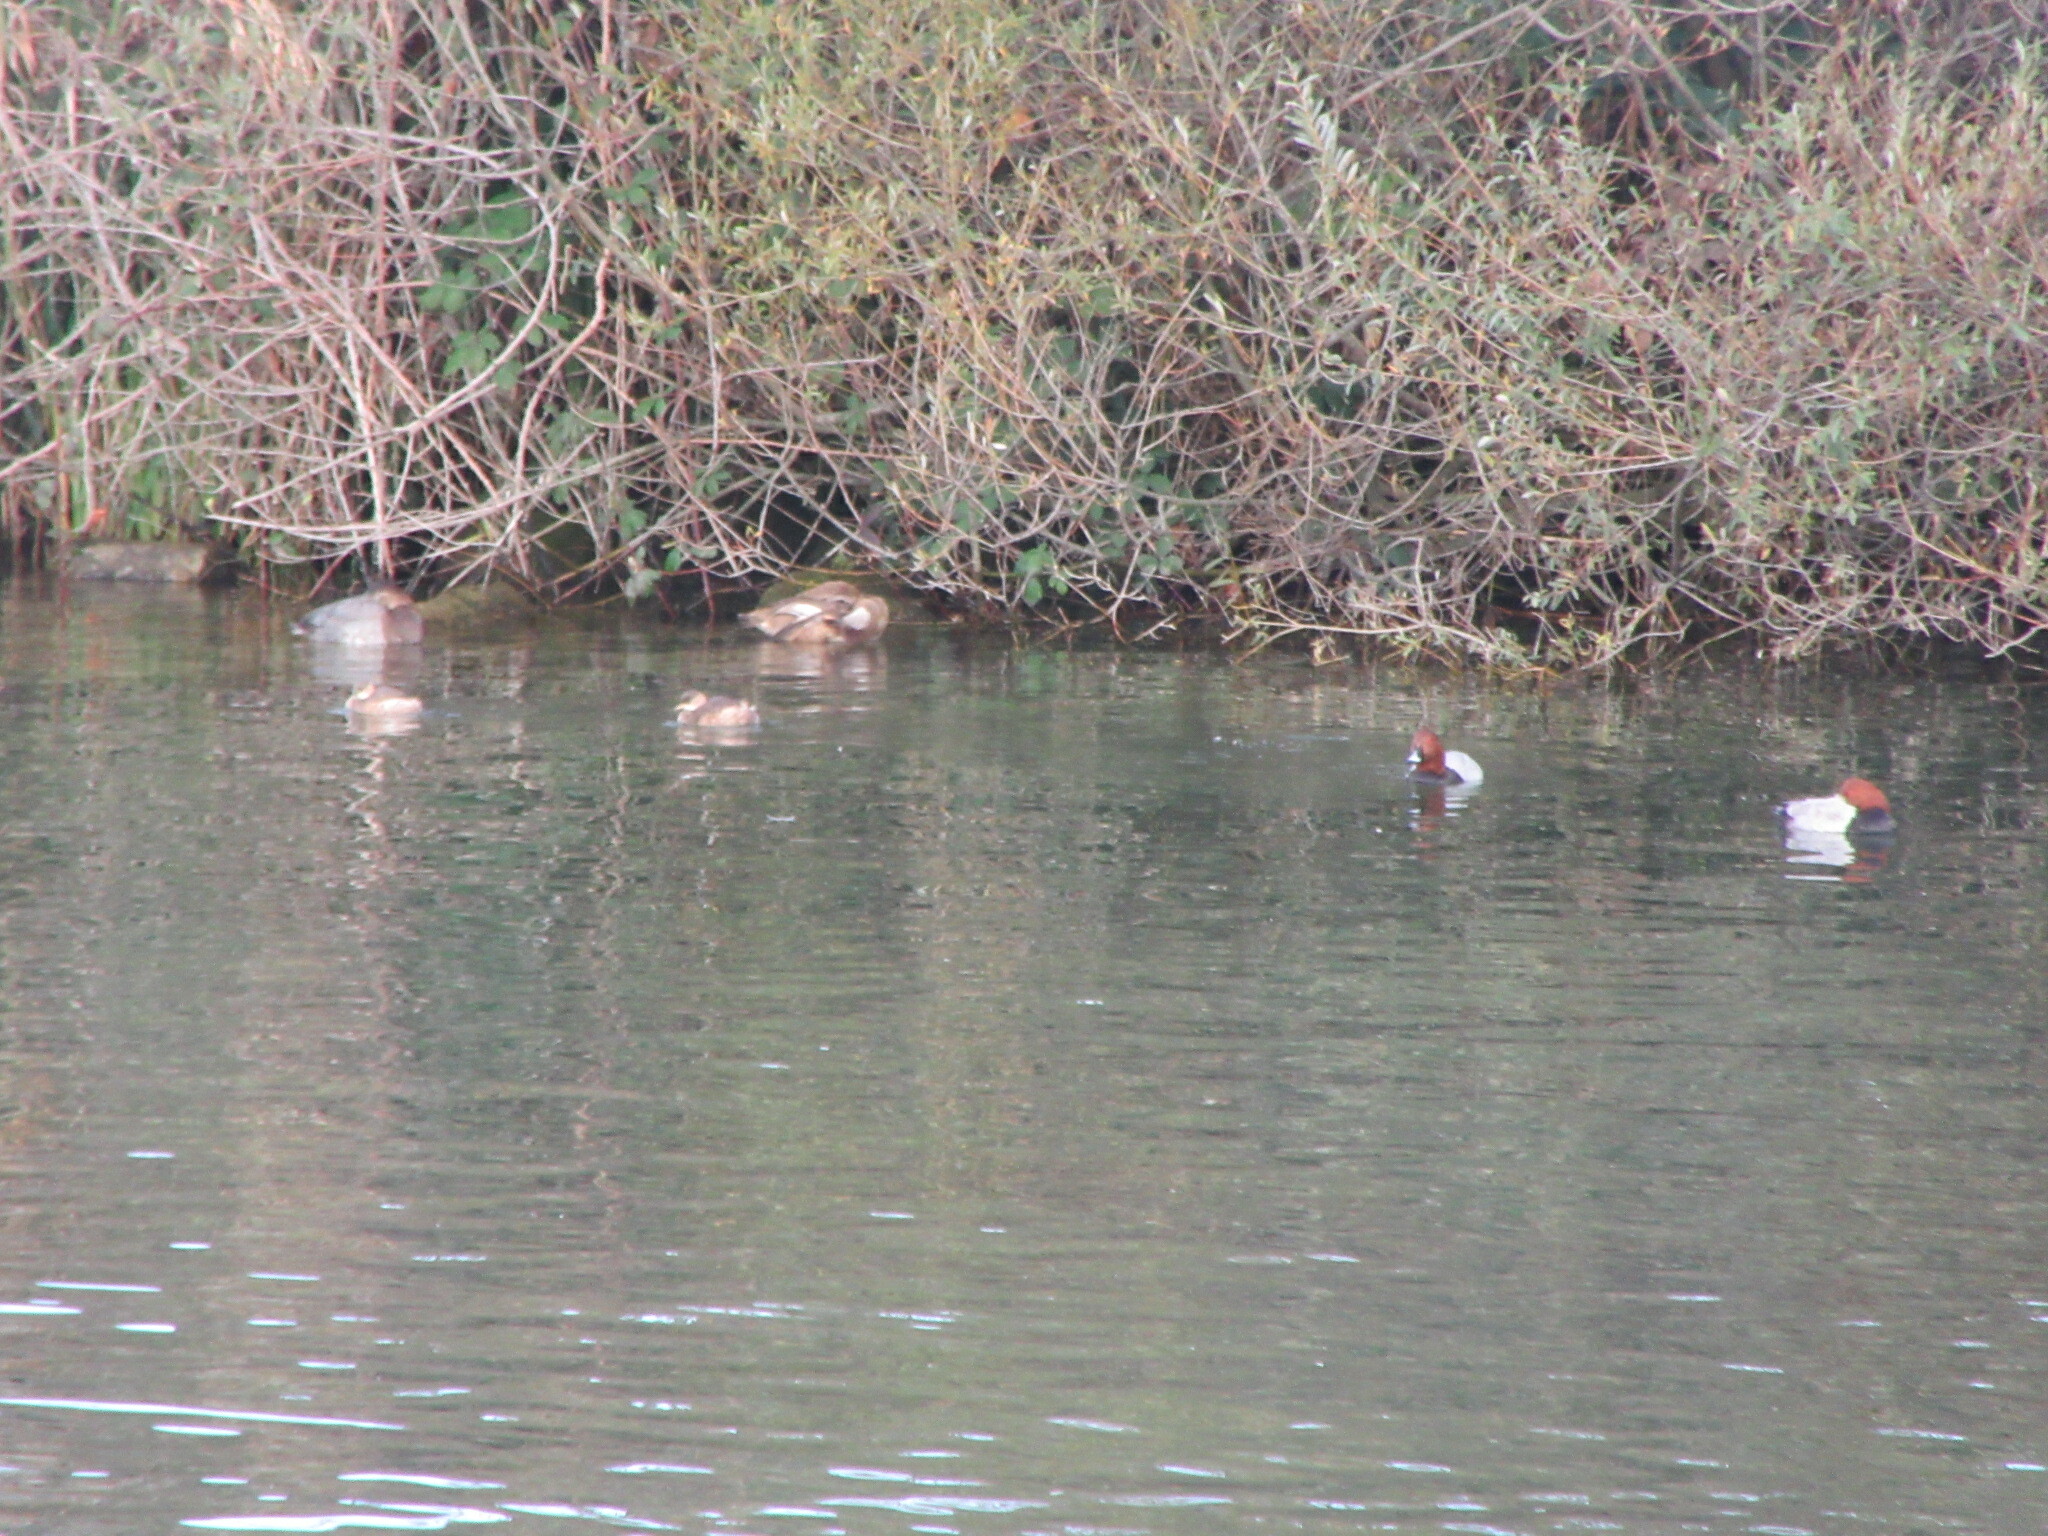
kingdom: Animalia
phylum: Chordata
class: Aves
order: Anseriformes
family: Anatidae
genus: Aythya
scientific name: Aythya ferina
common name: Common pochard
